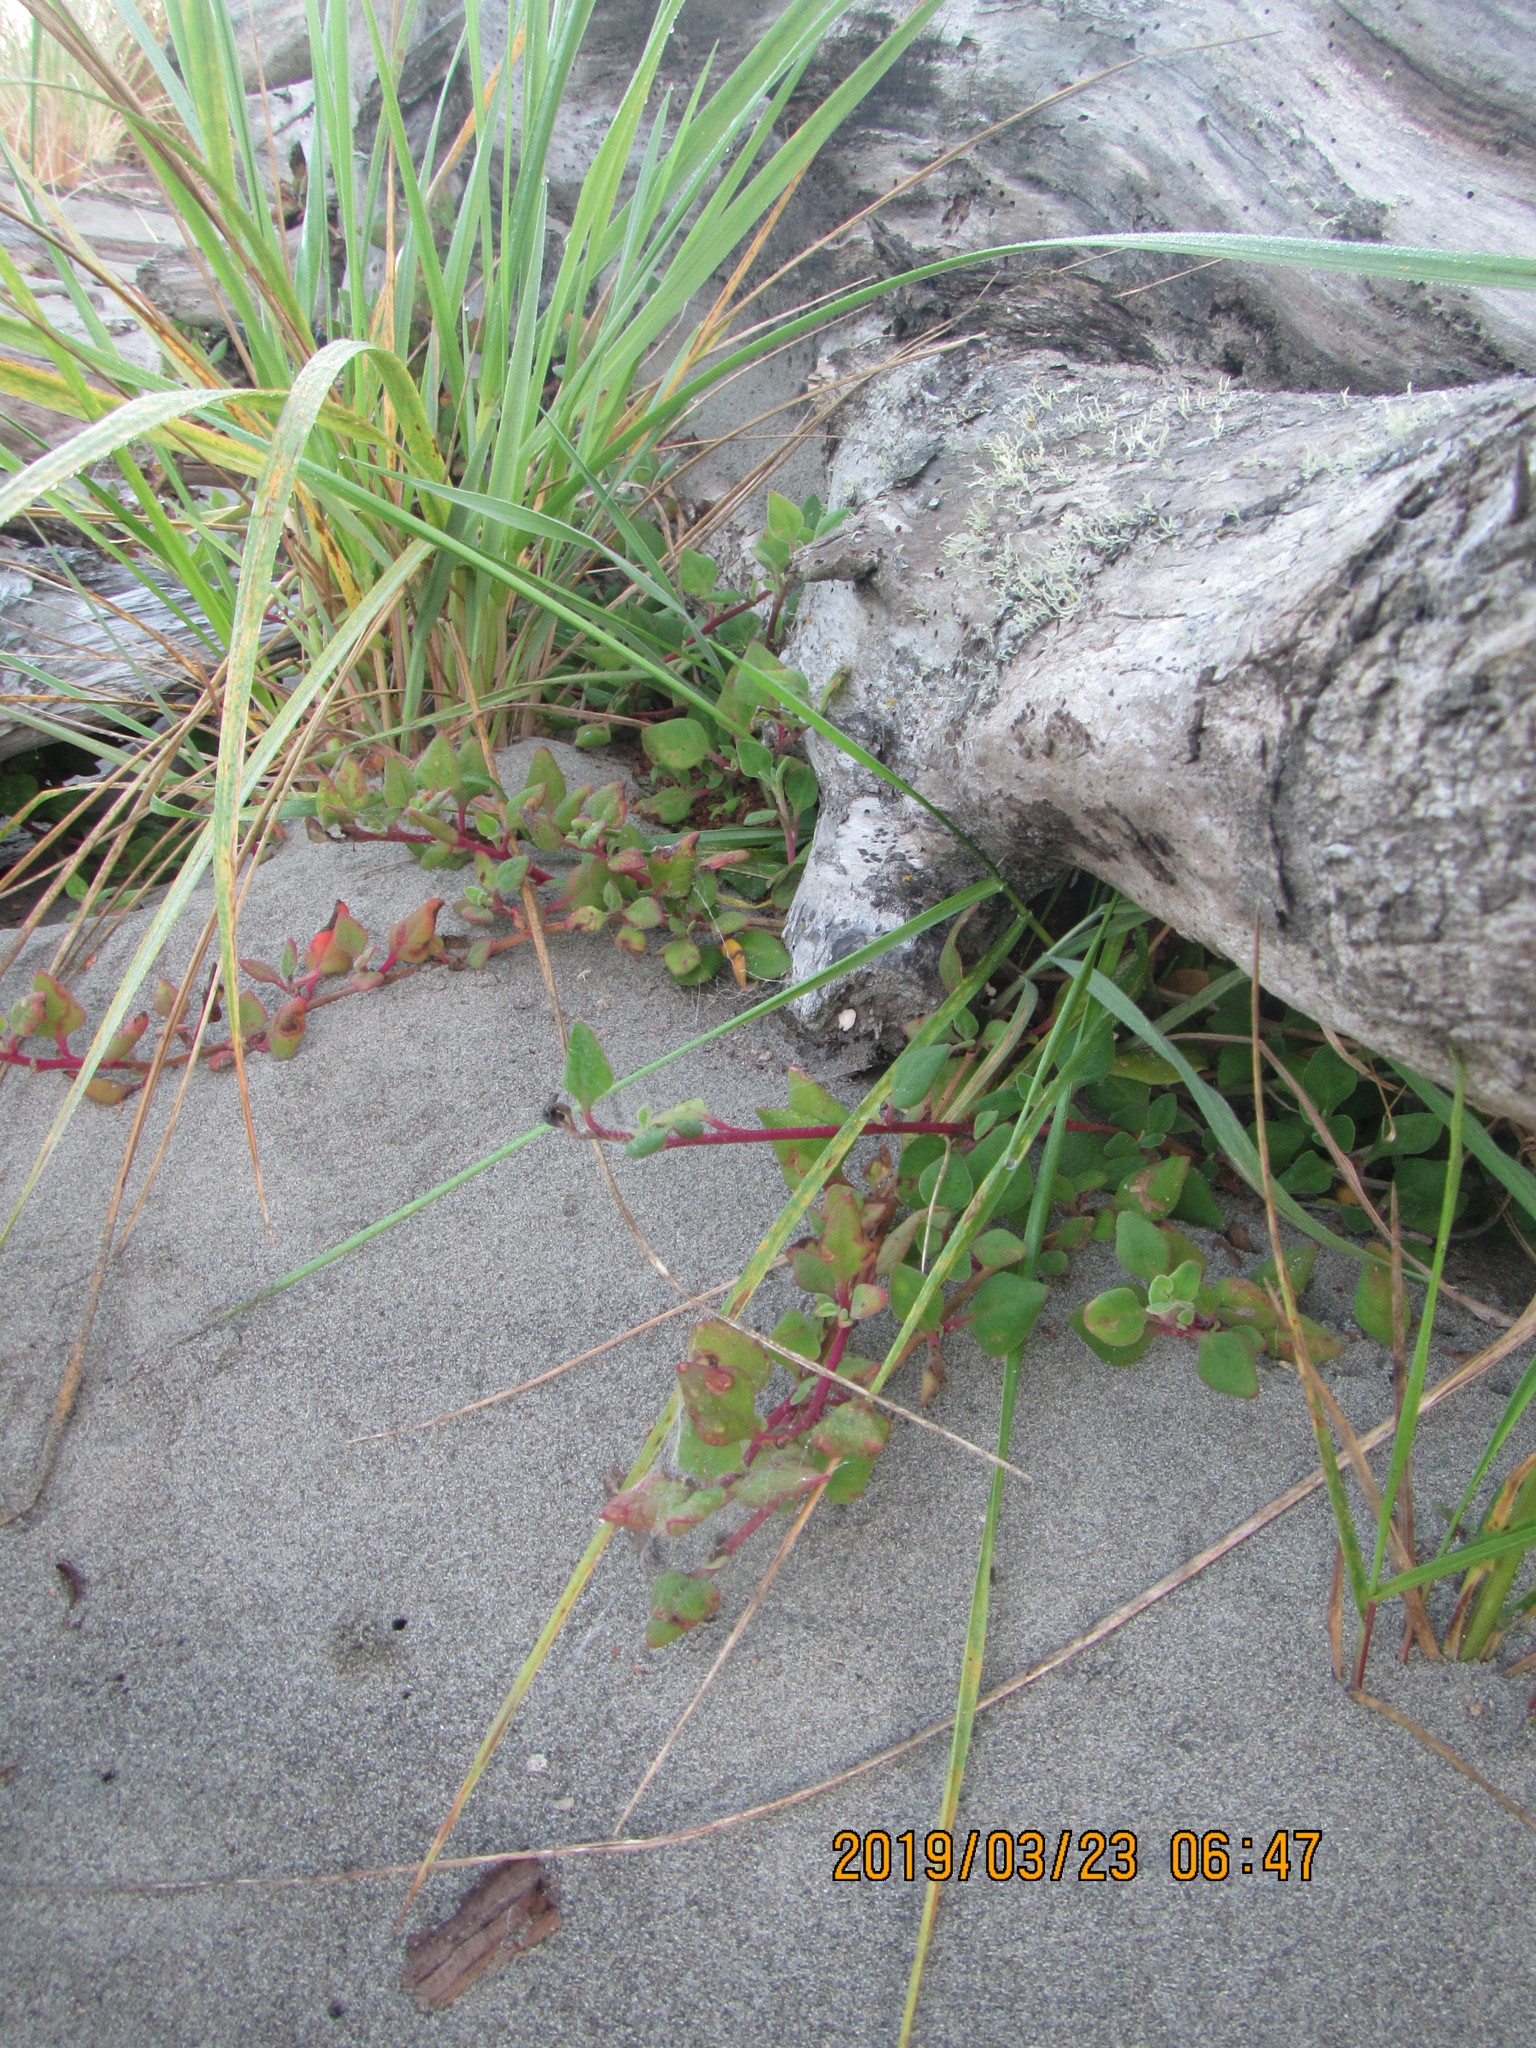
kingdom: Plantae
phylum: Tracheophyta
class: Magnoliopsida
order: Caryophyllales
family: Aizoaceae
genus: Tetragonia
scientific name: Tetragonia implexicoma
